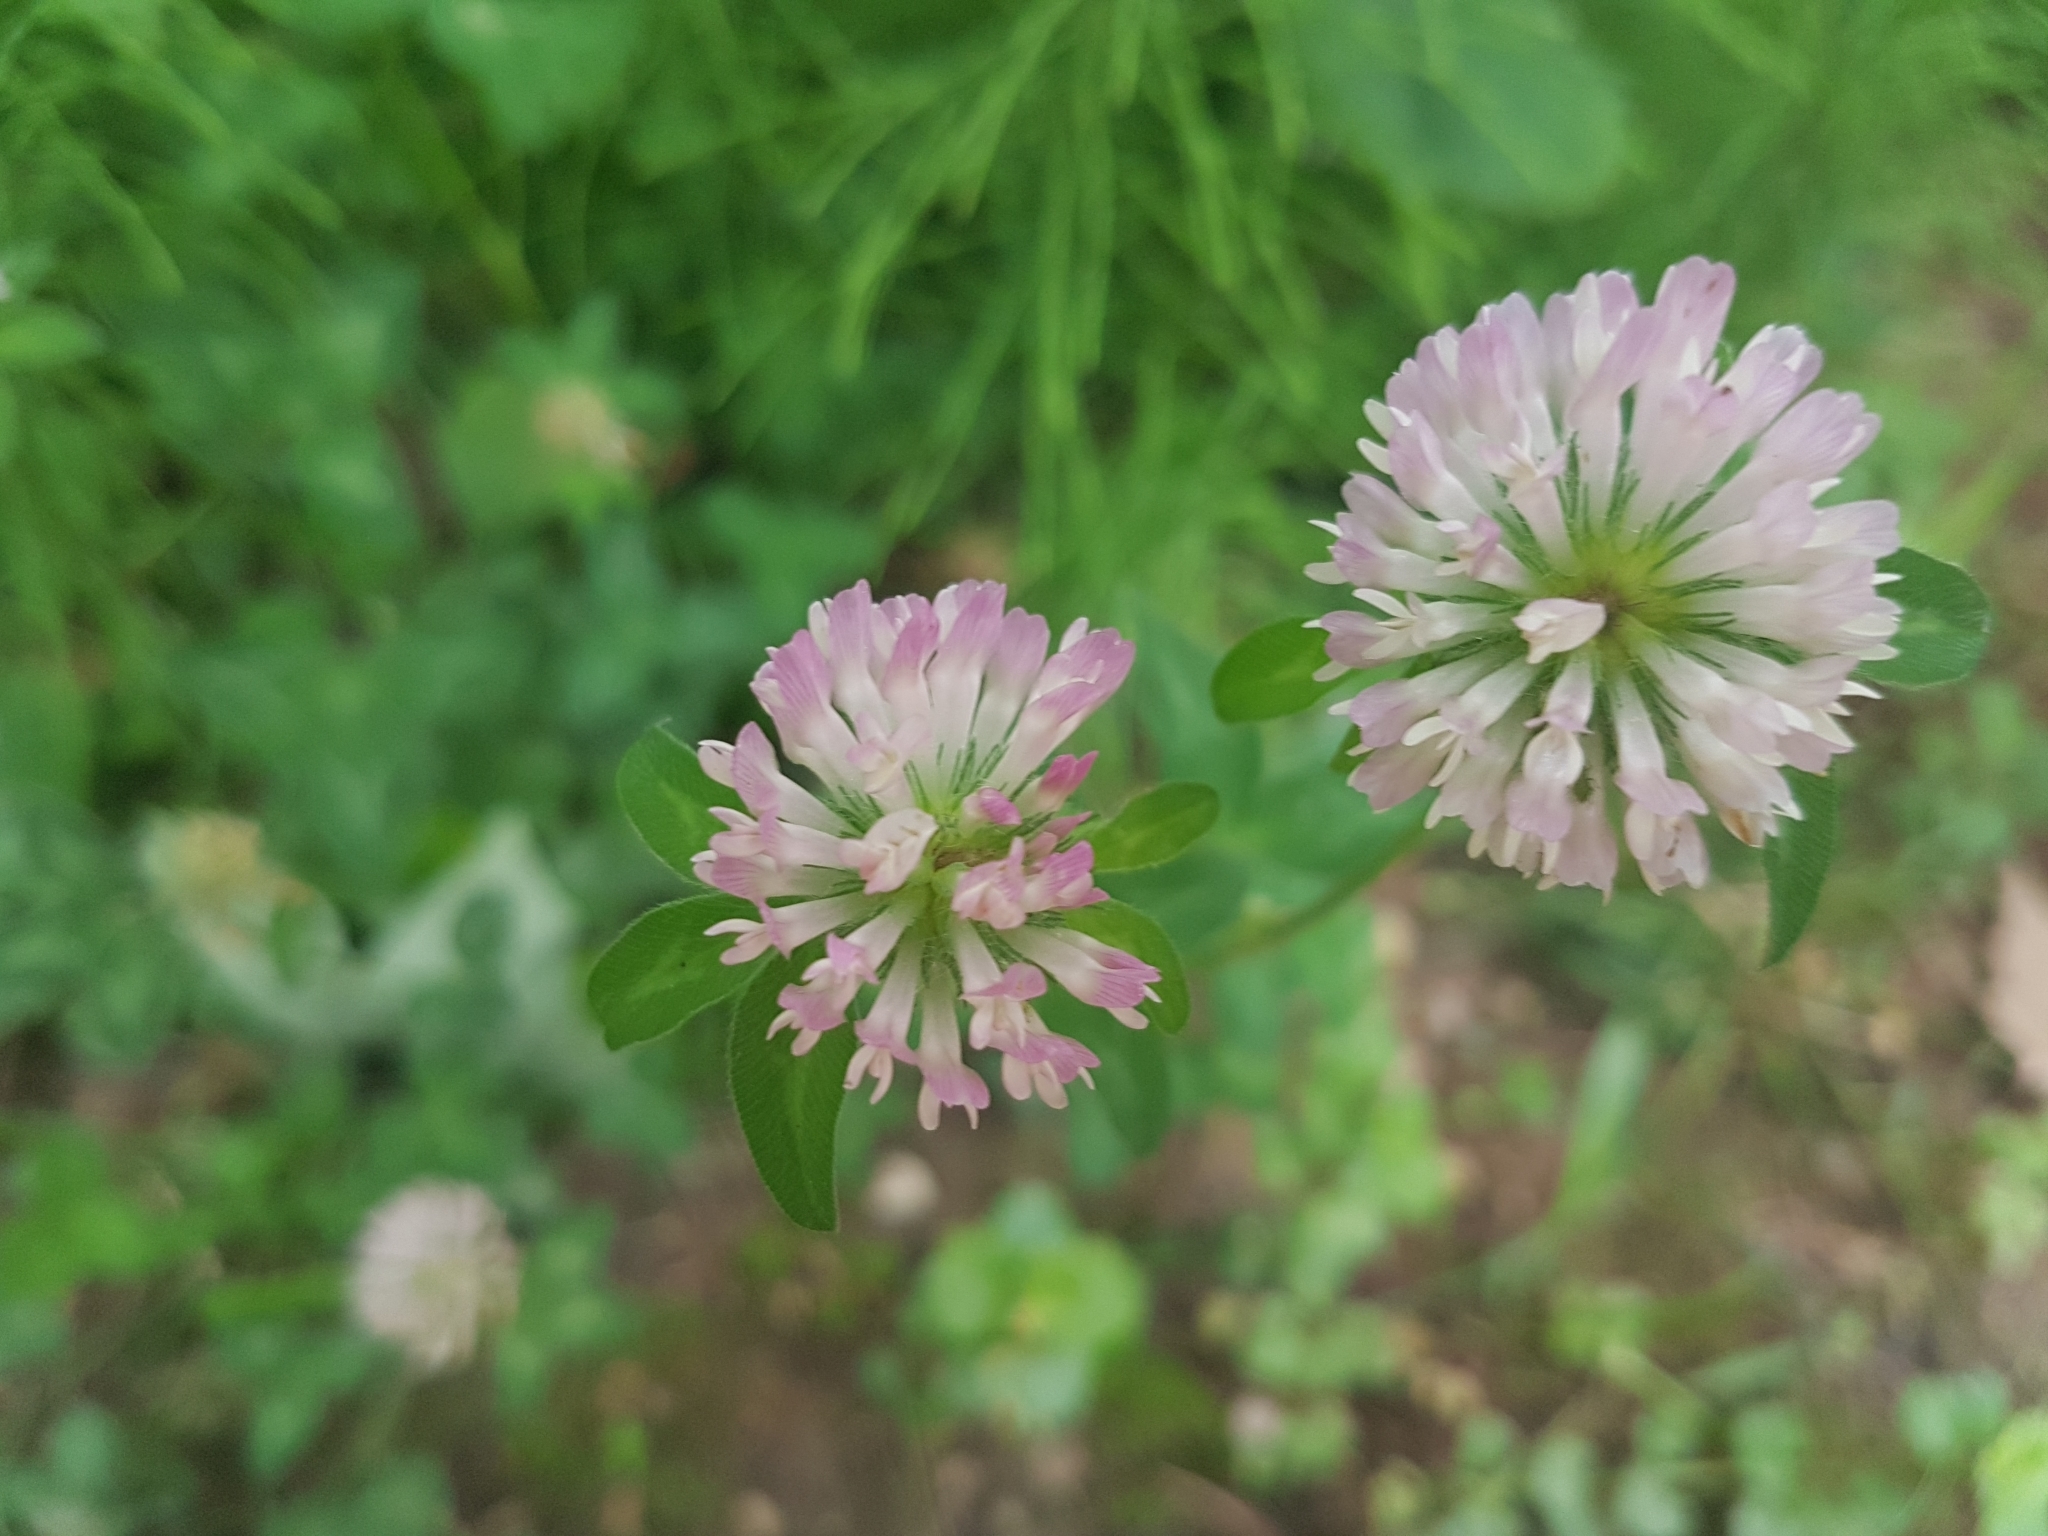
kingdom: Plantae
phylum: Tracheophyta
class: Magnoliopsida
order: Fabales
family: Fabaceae
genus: Trifolium
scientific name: Trifolium pratense
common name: Red clover
